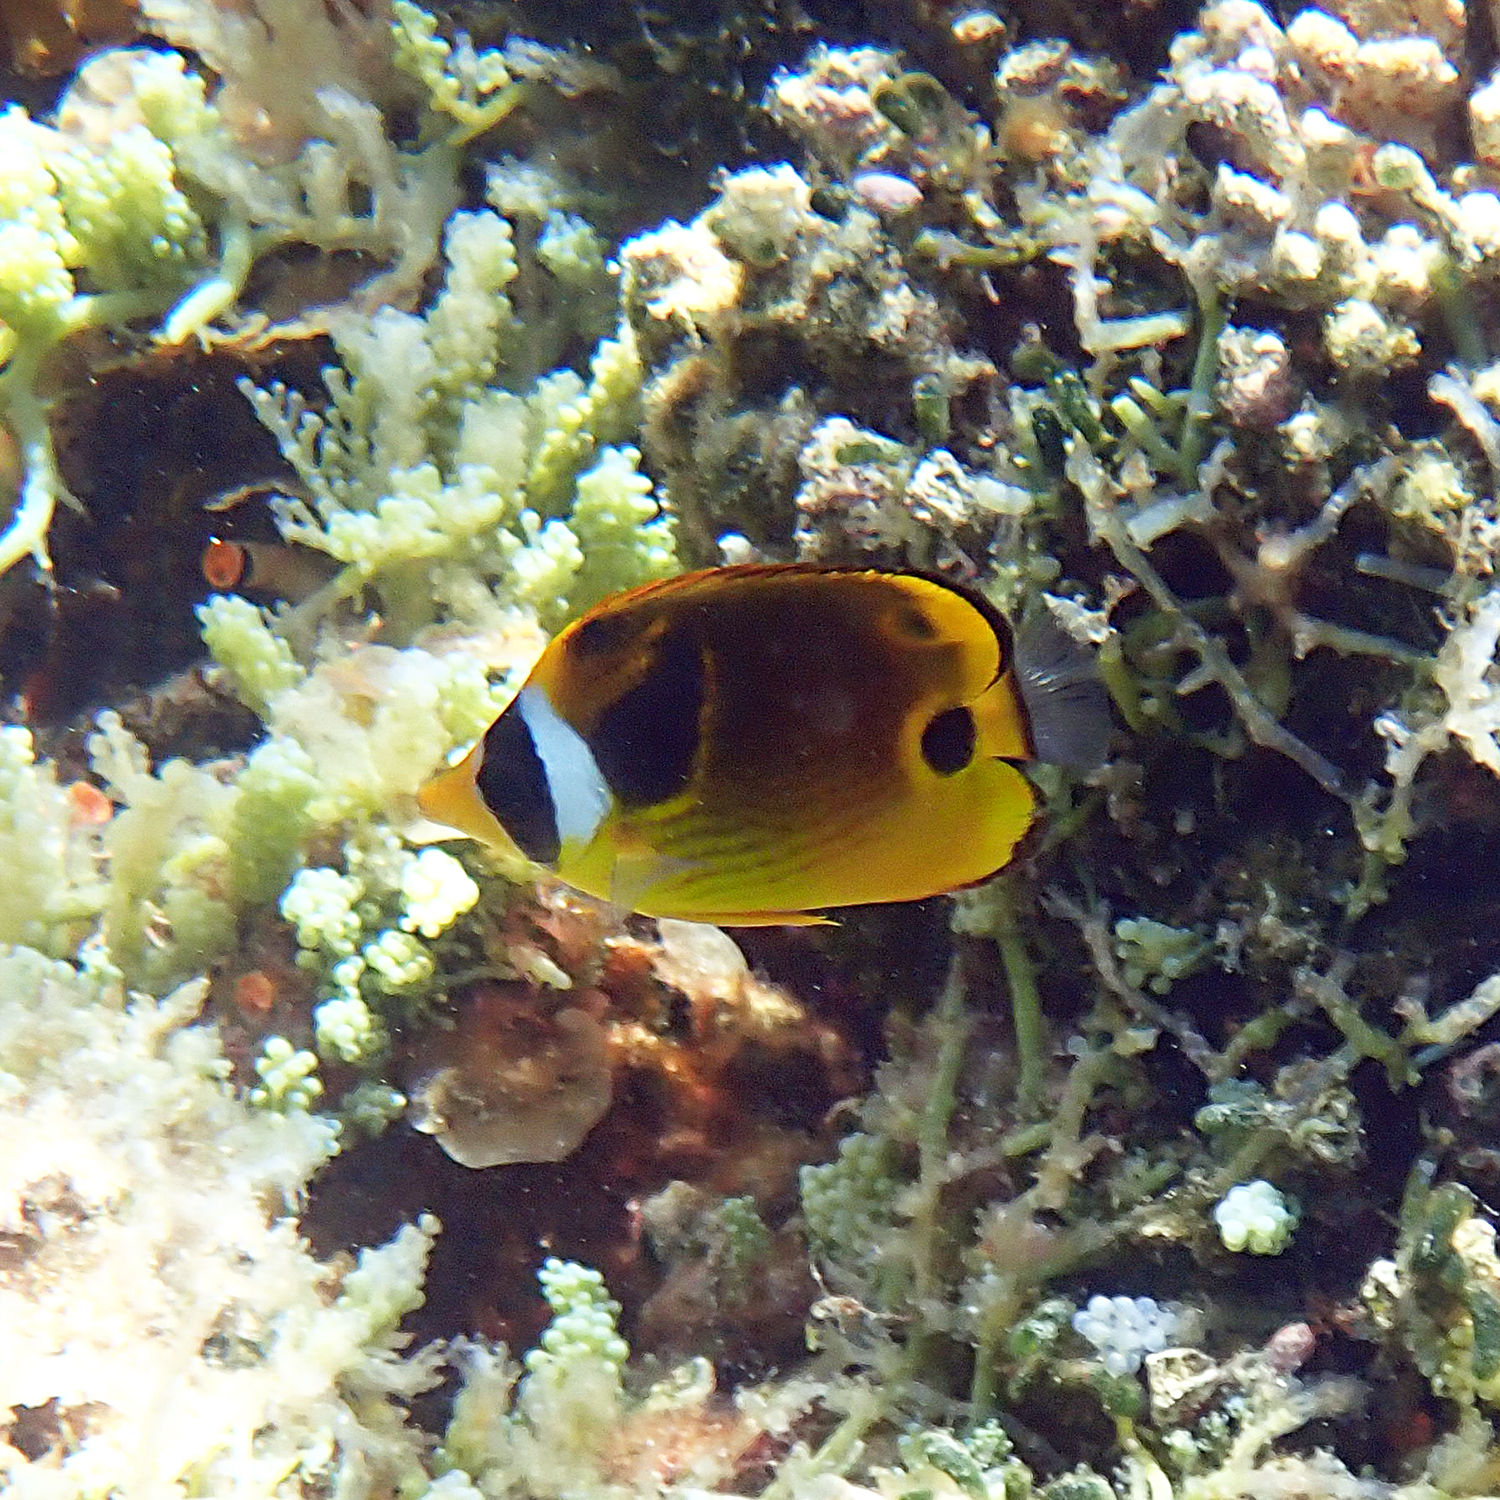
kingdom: Animalia
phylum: Chordata
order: Perciformes
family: Chaetodontidae
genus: Chaetodon
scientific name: Chaetodon lunula
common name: Raccoon butterflyfish
